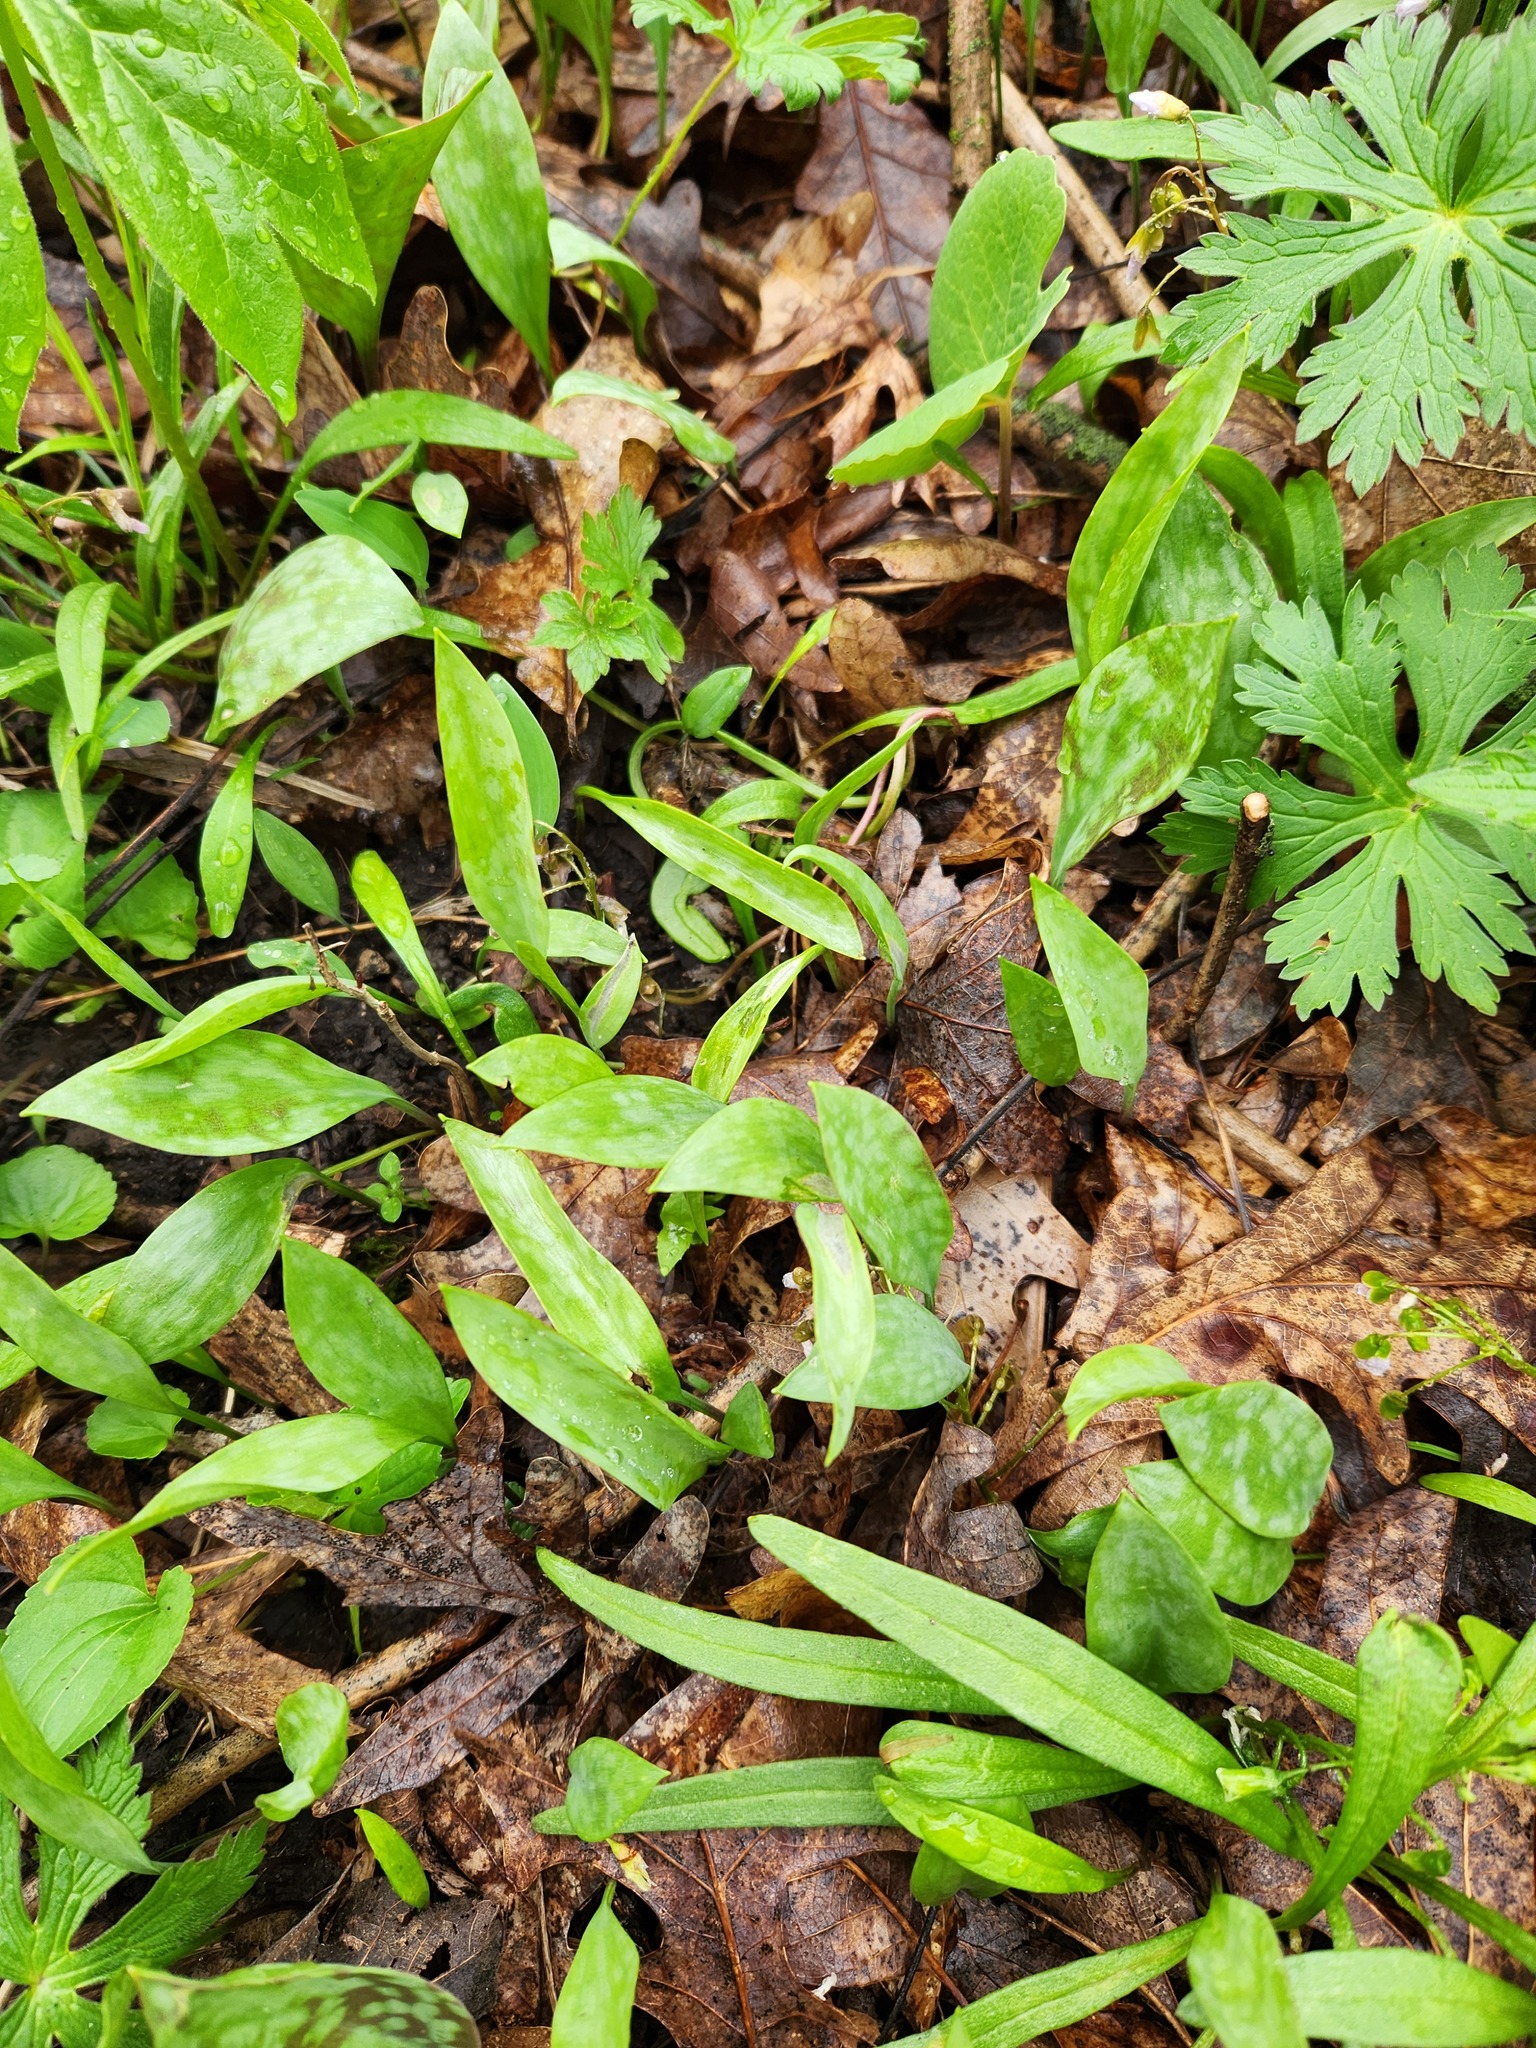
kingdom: Plantae
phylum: Tracheophyta
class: Liliopsida
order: Liliales
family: Liliaceae
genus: Erythronium
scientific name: Erythronium albidum
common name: White trout-lily
